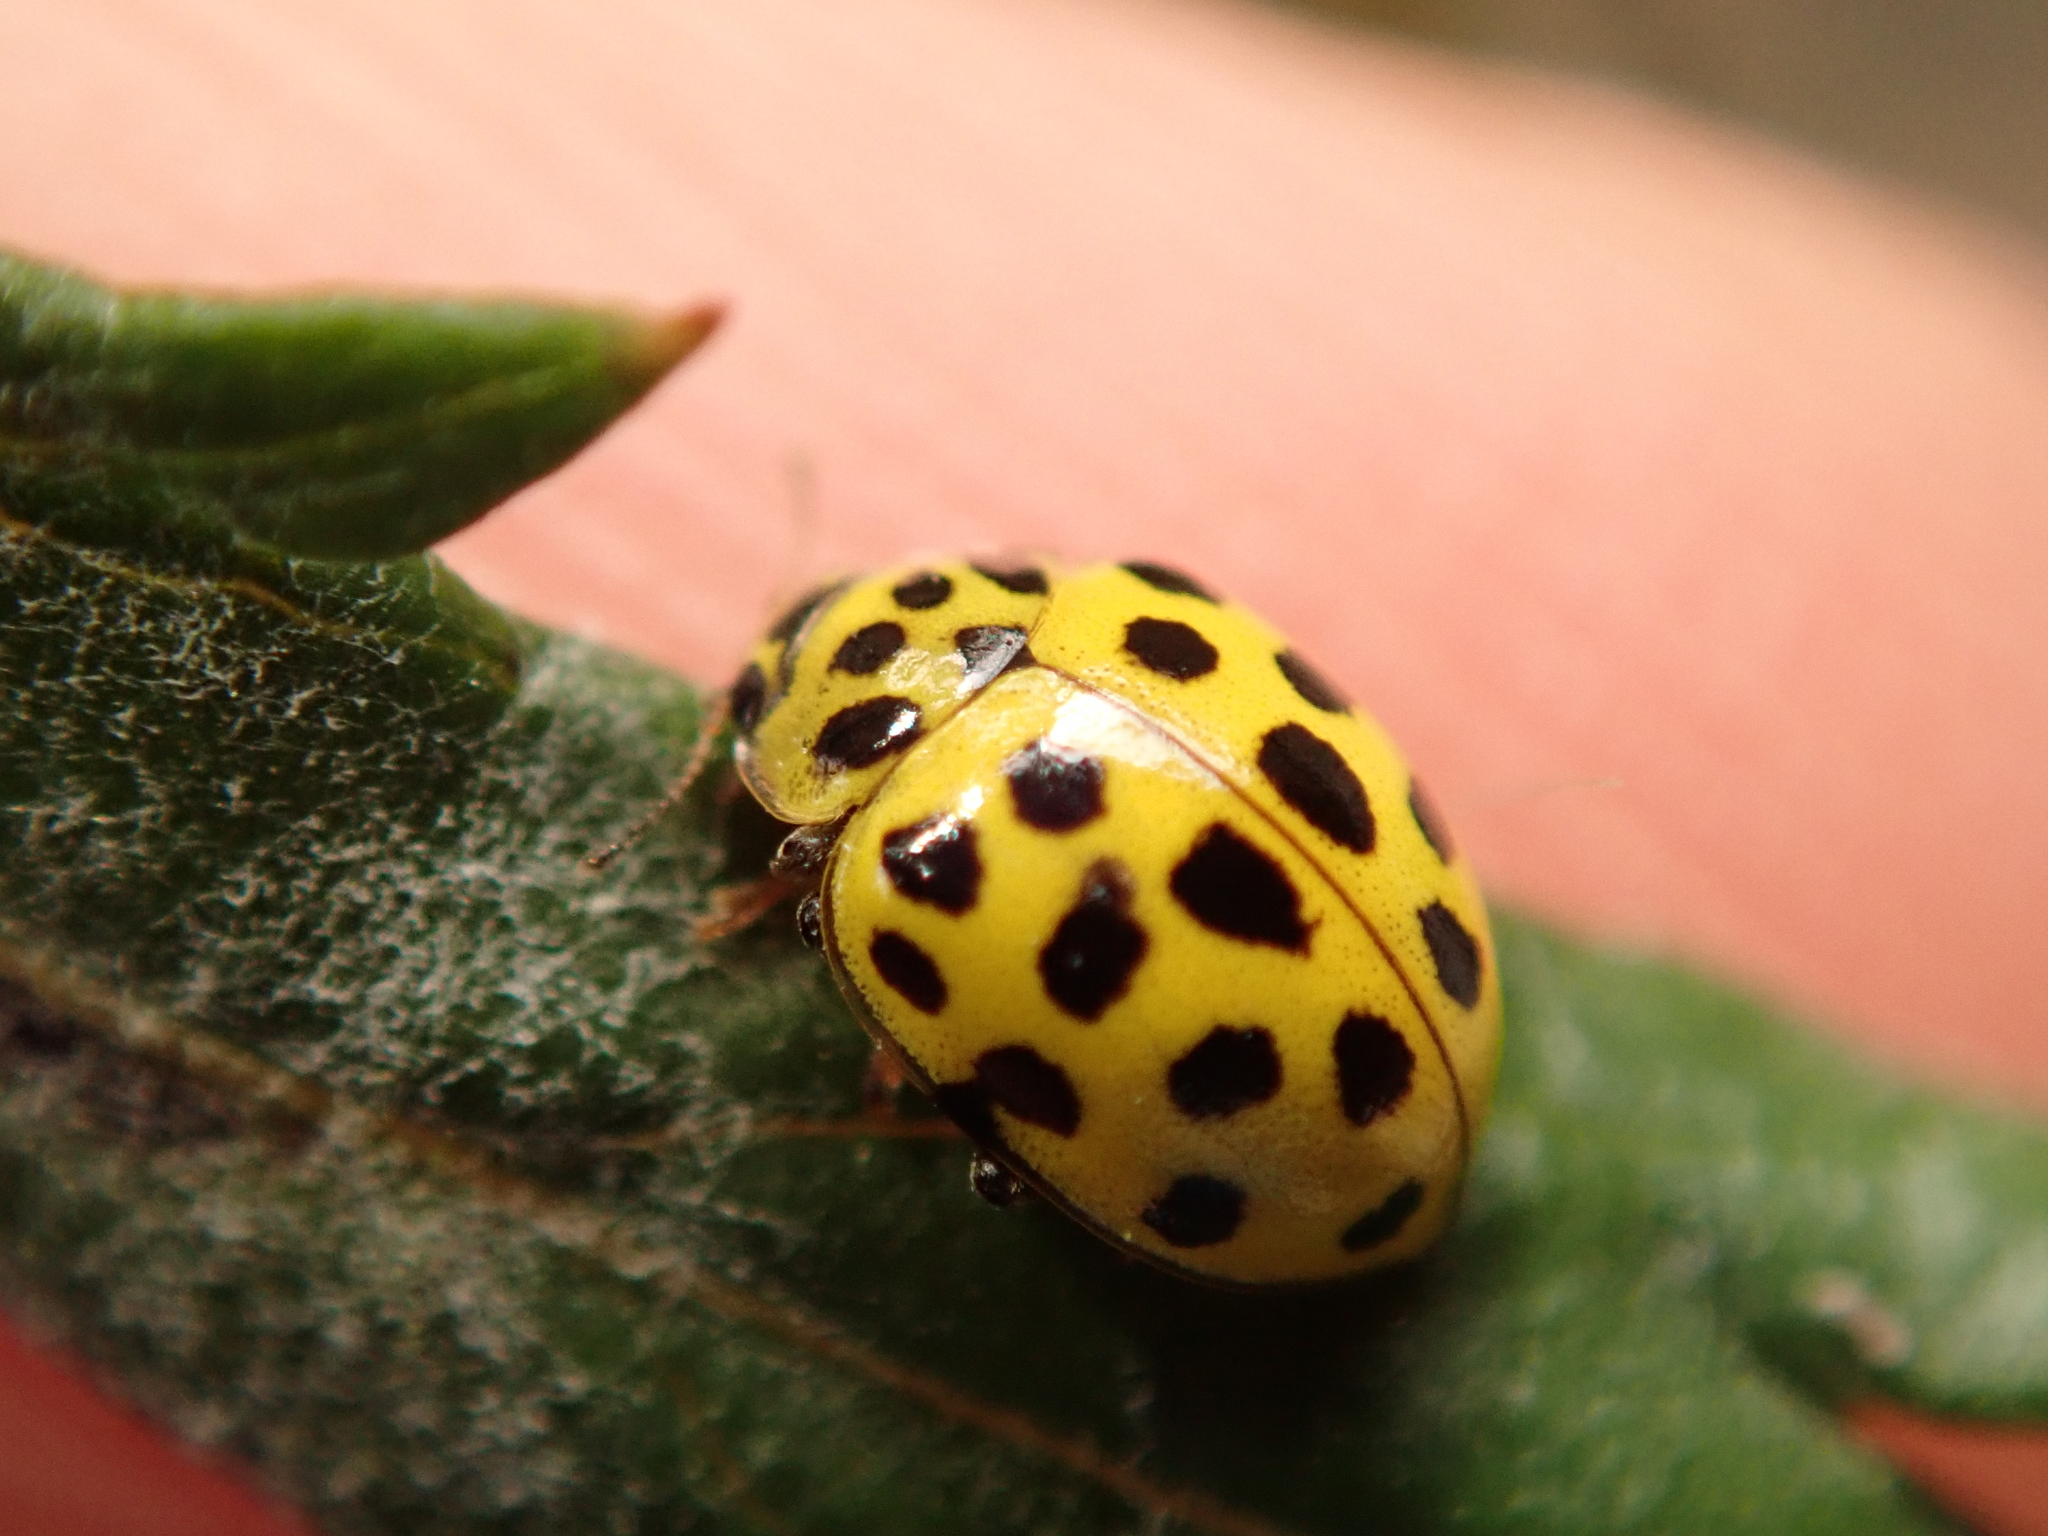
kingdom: Animalia
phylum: Arthropoda
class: Insecta
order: Coleoptera
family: Coccinellidae
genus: Psyllobora
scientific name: Psyllobora vigintiduopunctata
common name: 22-spot ladybird
